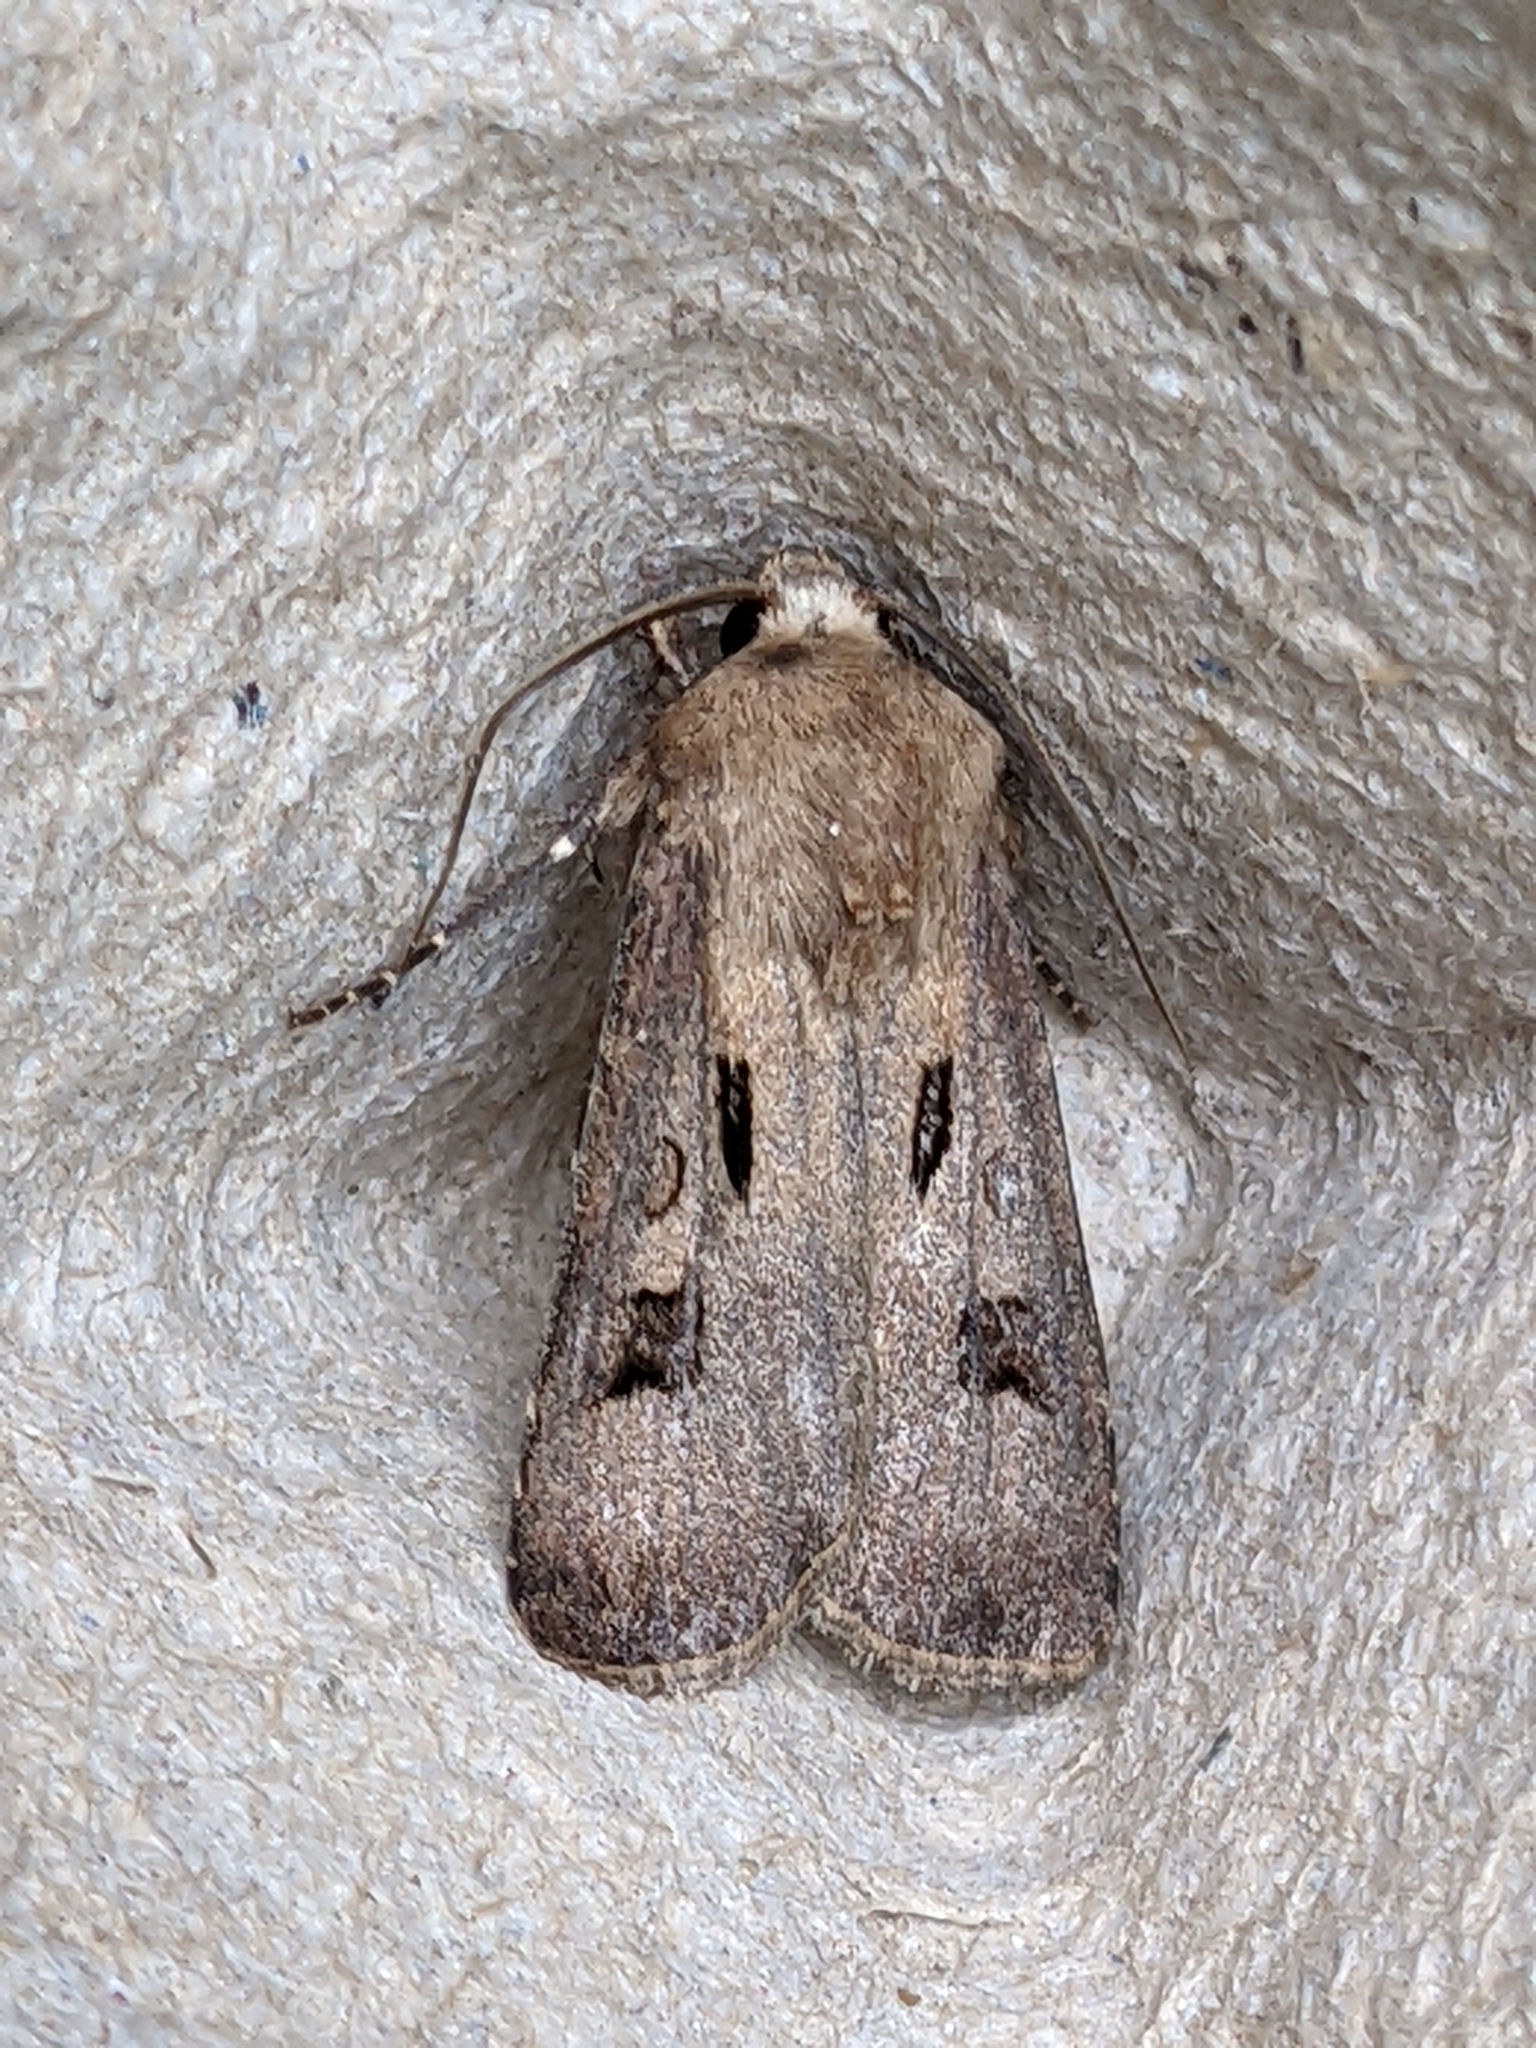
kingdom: Animalia
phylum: Arthropoda
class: Insecta
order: Lepidoptera
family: Noctuidae
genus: Agrotis
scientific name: Agrotis exclamationis
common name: Heart and dart
